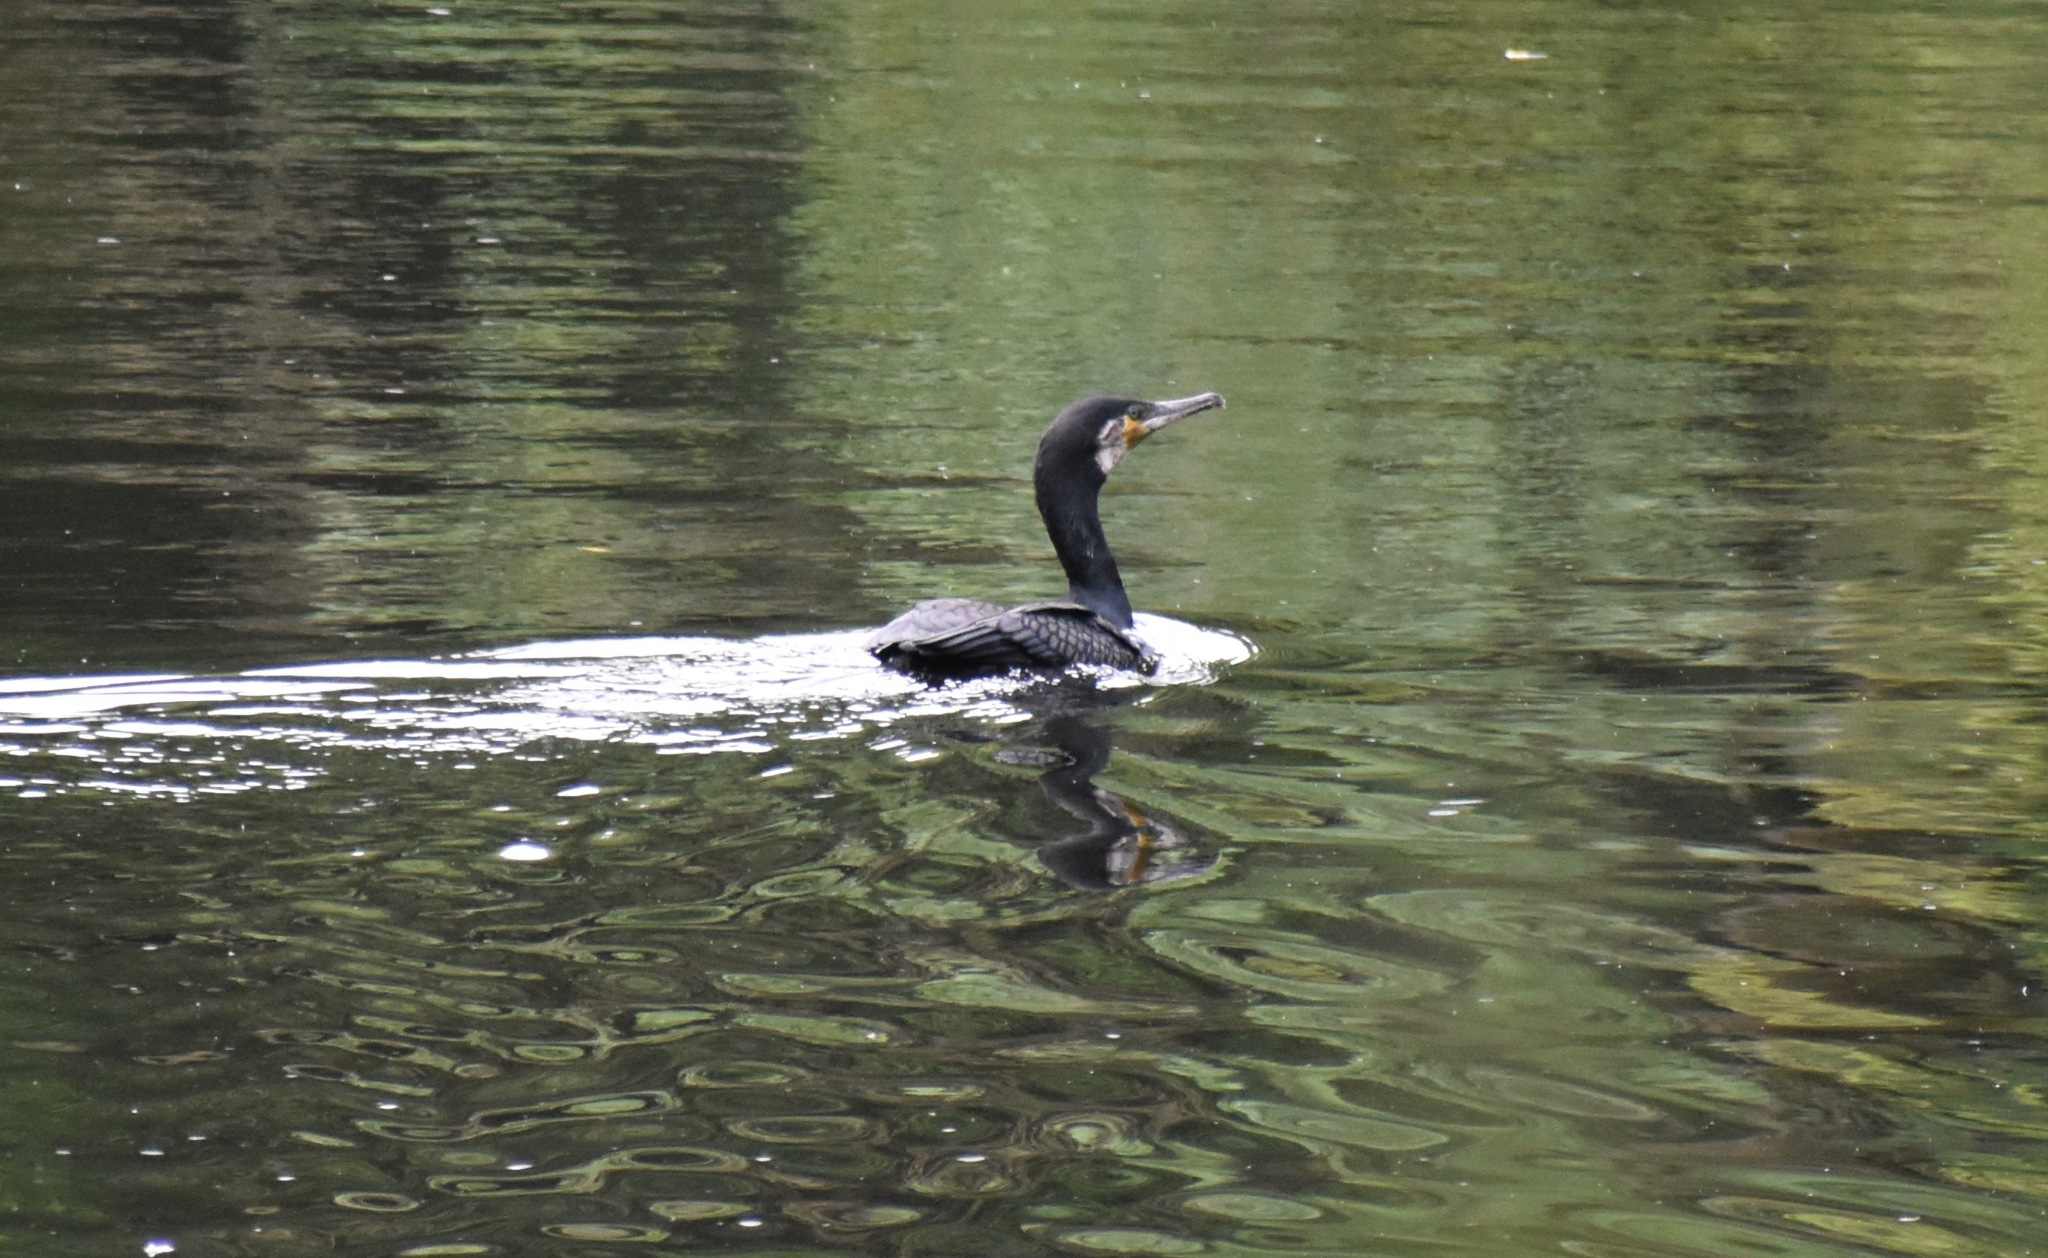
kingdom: Animalia
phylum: Chordata
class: Aves
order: Suliformes
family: Phalacrocoracidae
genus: Phalacrocorax
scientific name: Phalacrocorax carbo
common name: Great cormorant
